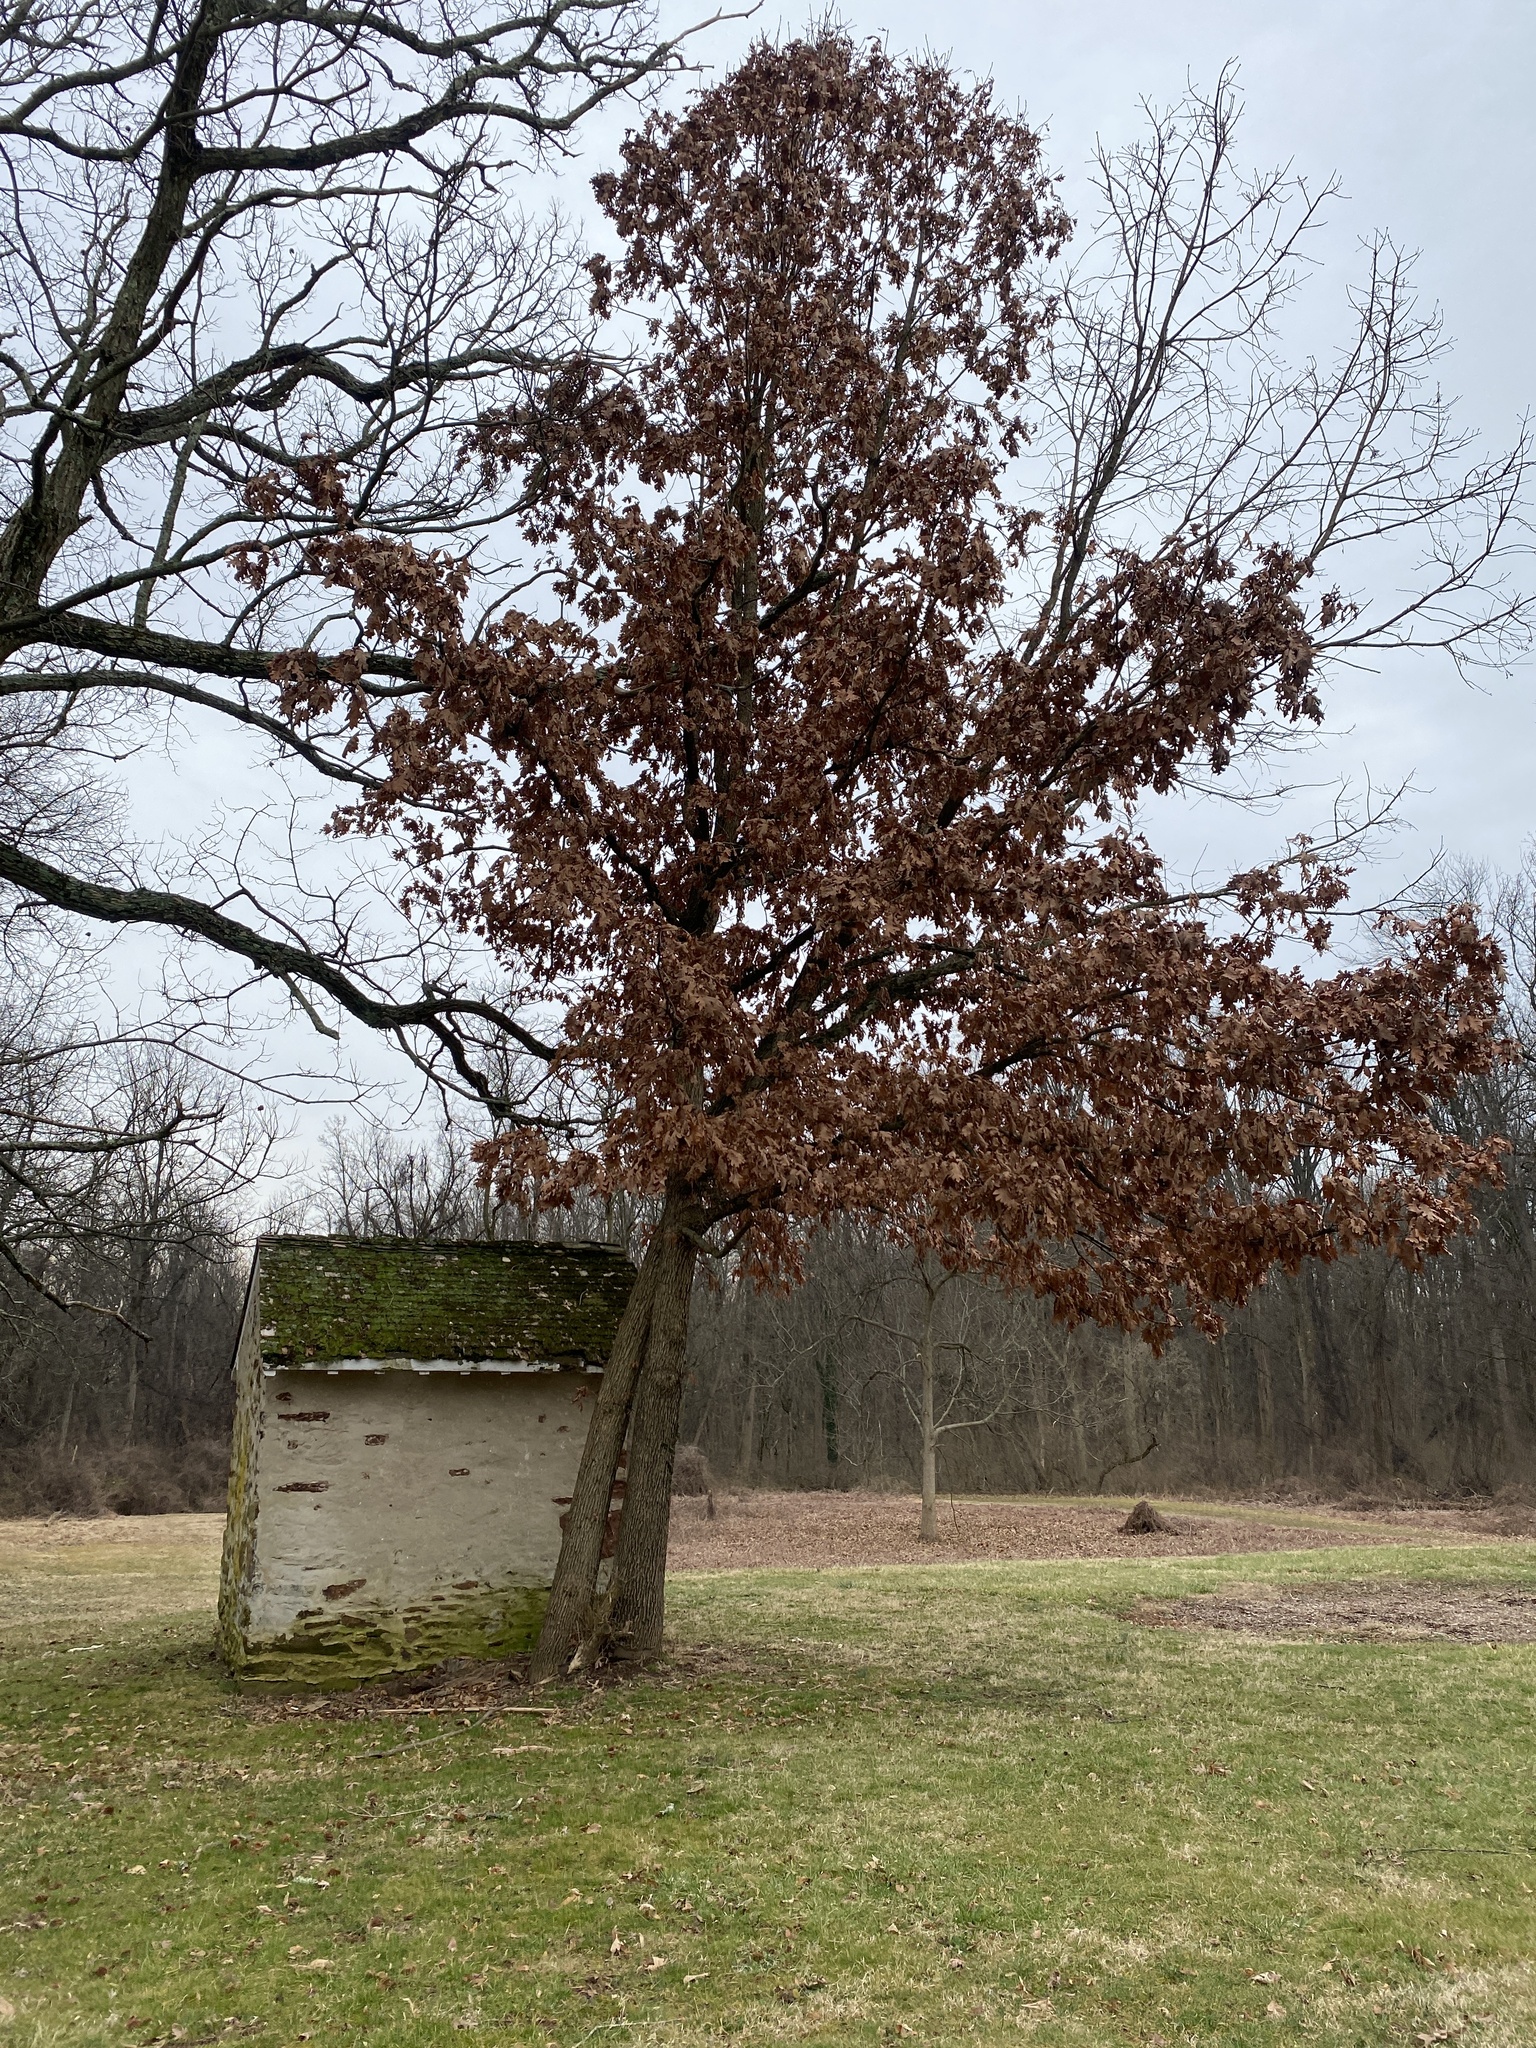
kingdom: Plantae
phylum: Tracheophyta
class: Magnoliopsida
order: Fagales
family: Fagaceae
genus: Quercus
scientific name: Quercus alba
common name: White oak
